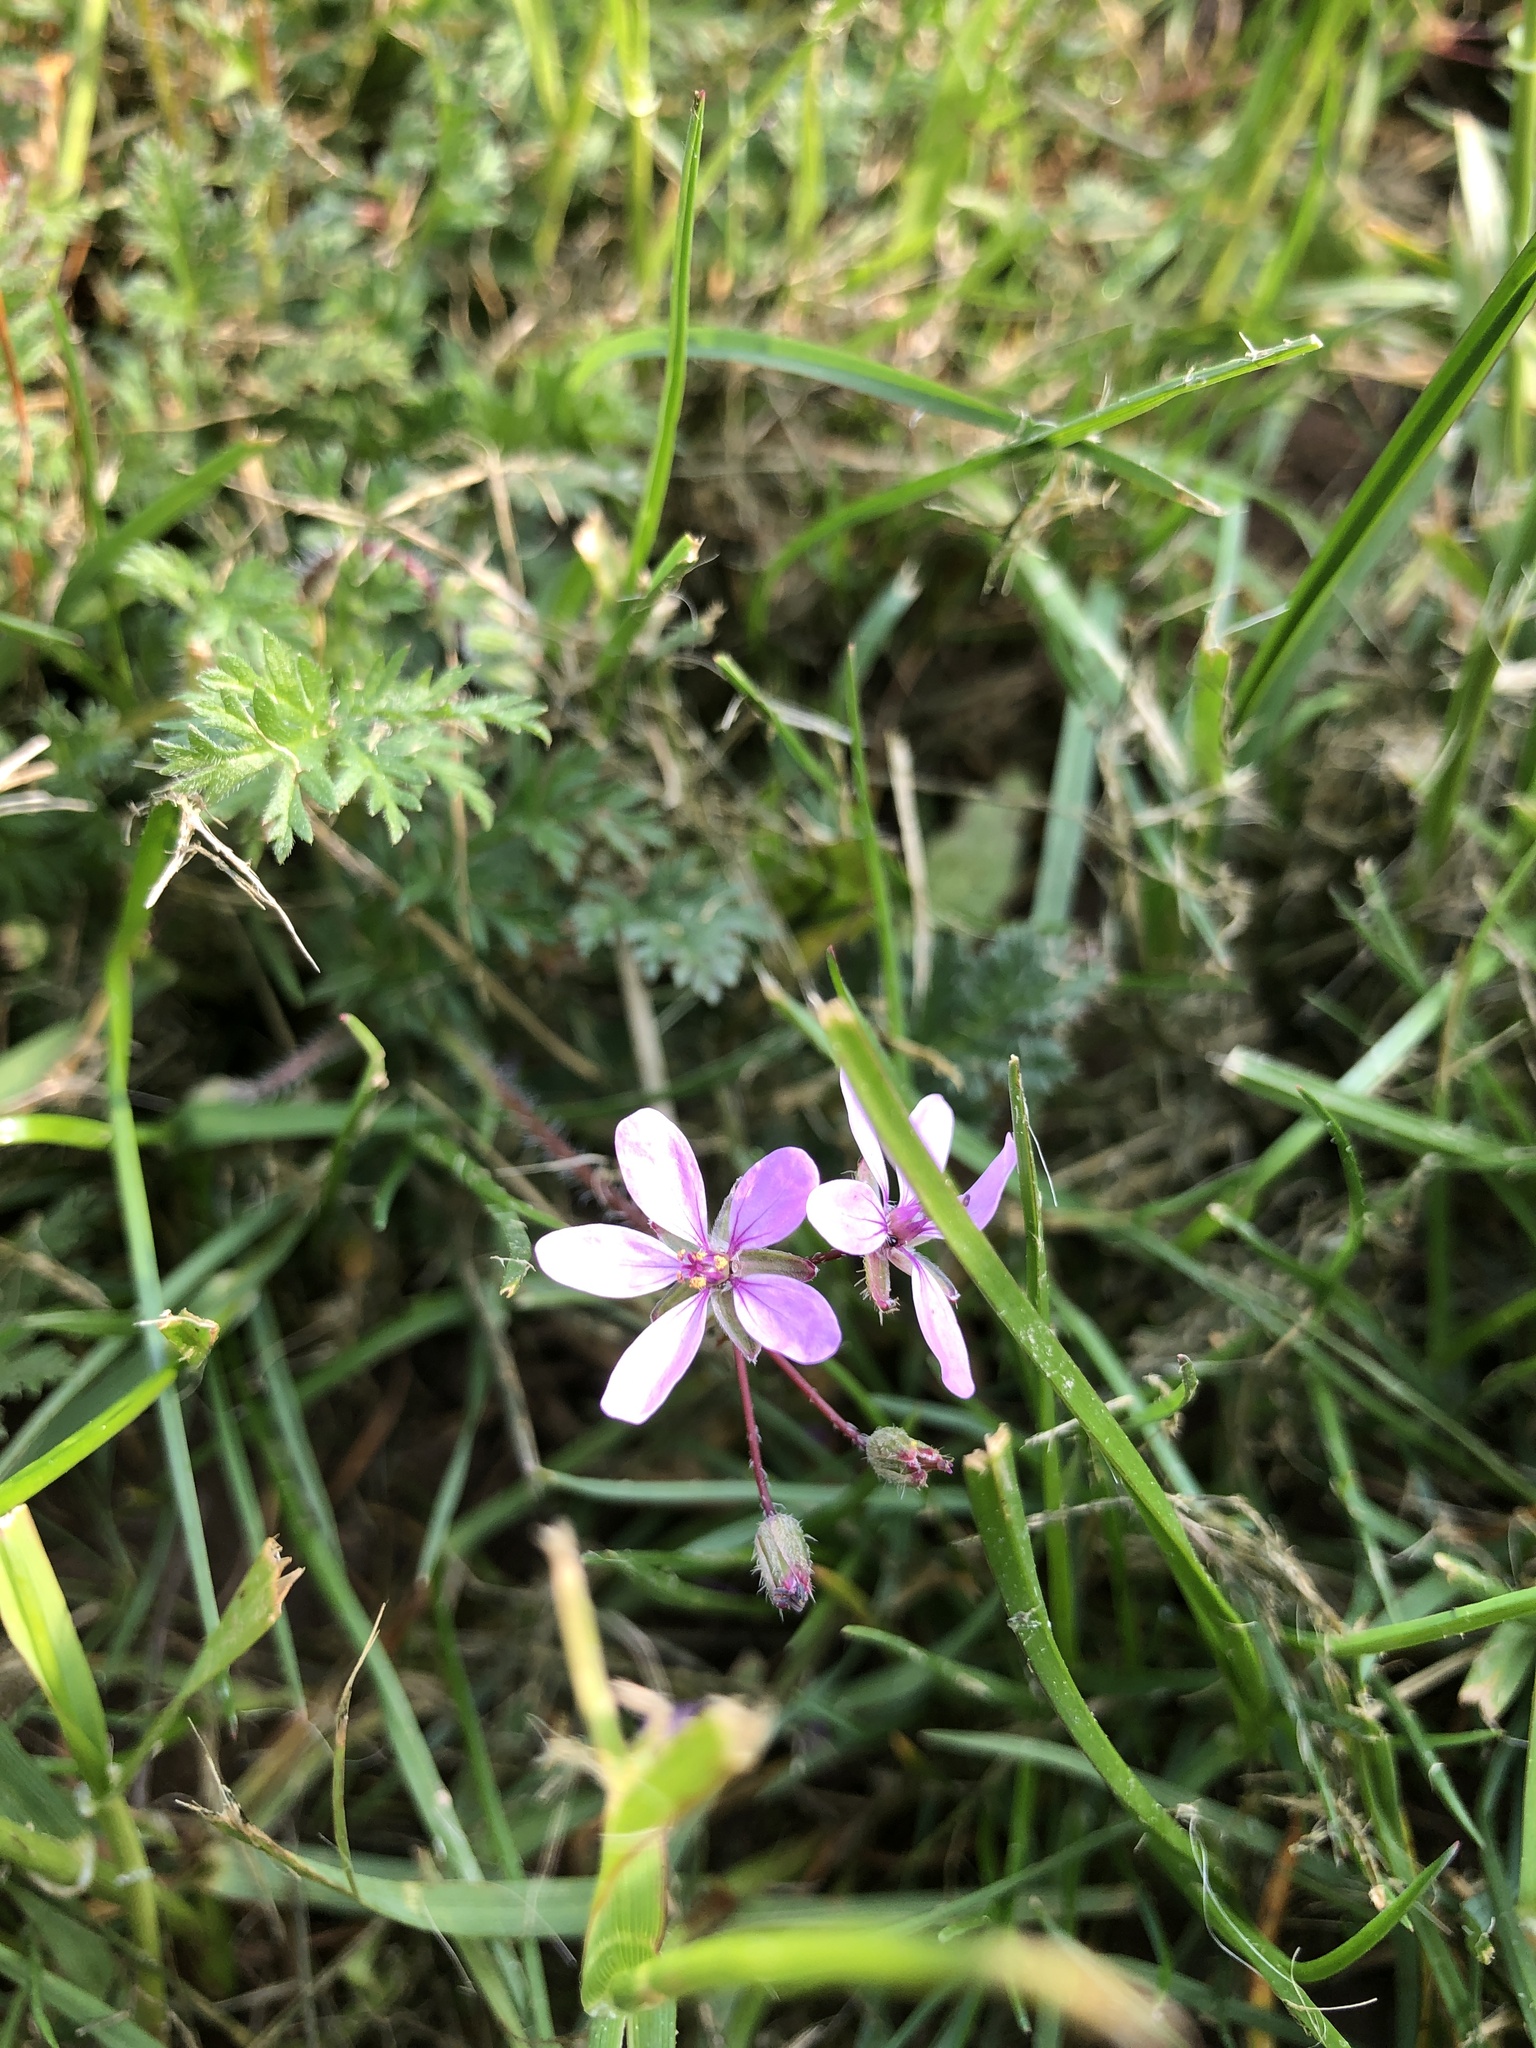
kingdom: Plantae
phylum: Tracheophyta
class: Magnoliopsida
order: Geraniales
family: Geraniaceae
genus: Erodium
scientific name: Erodium cicutarium
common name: Common stork's-bill
